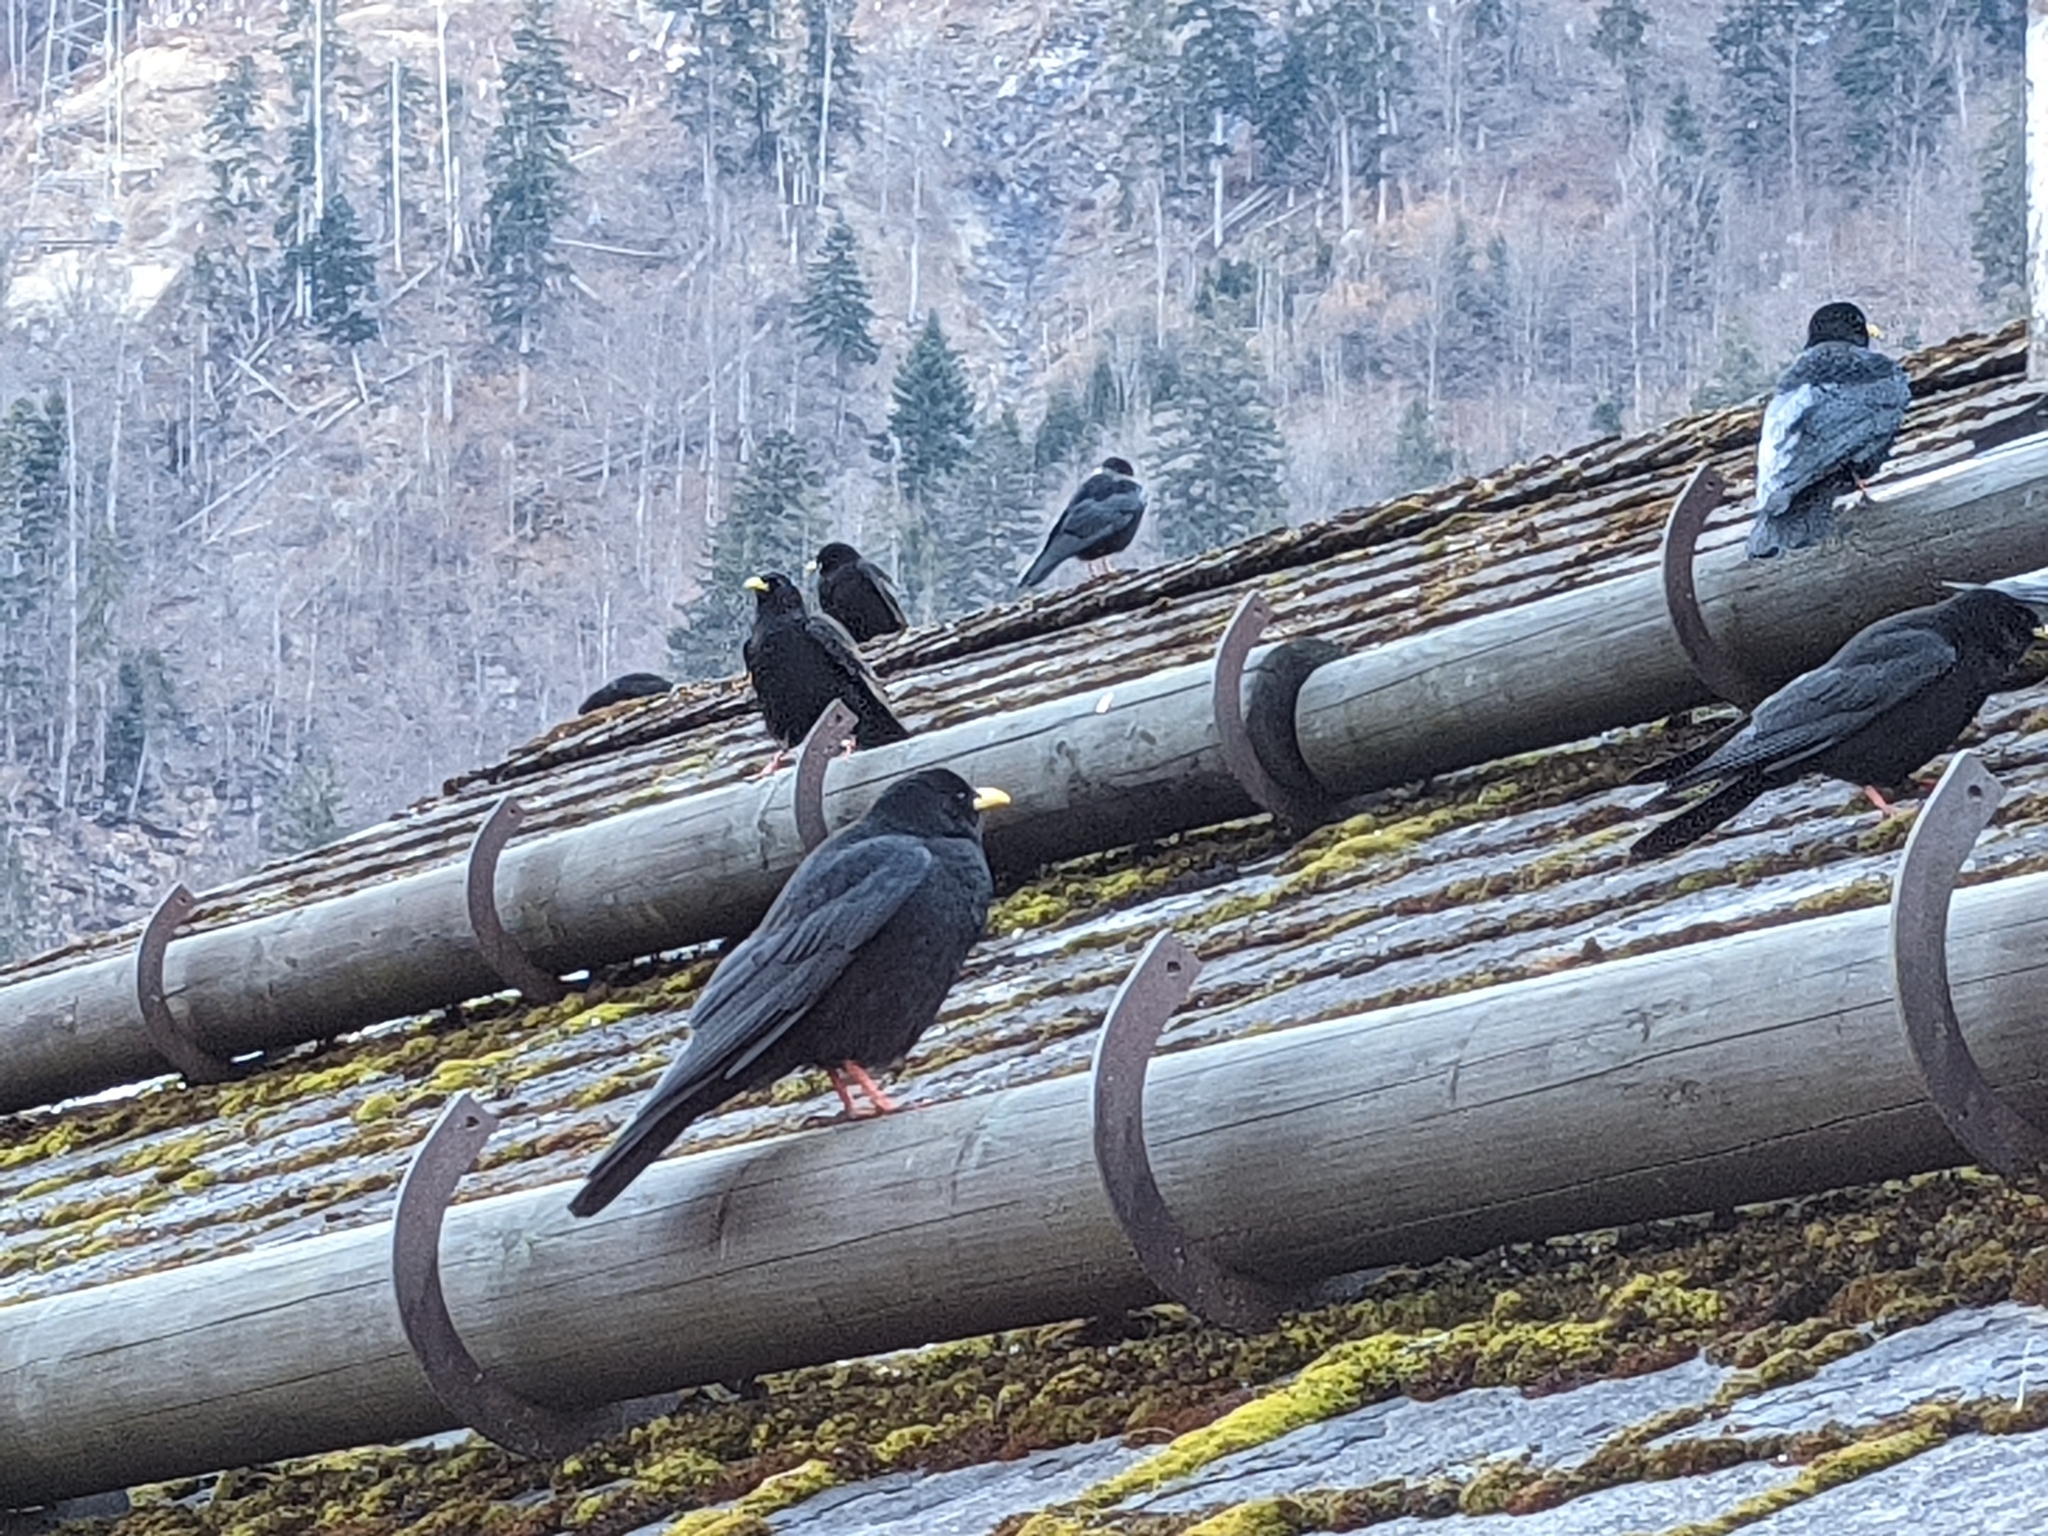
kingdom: Animalia
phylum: Chordata
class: Aves
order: Passeriformes
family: Corvidae
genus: Pyrrhocorax
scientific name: Pyrrhocorax graculus
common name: Alpine chough
